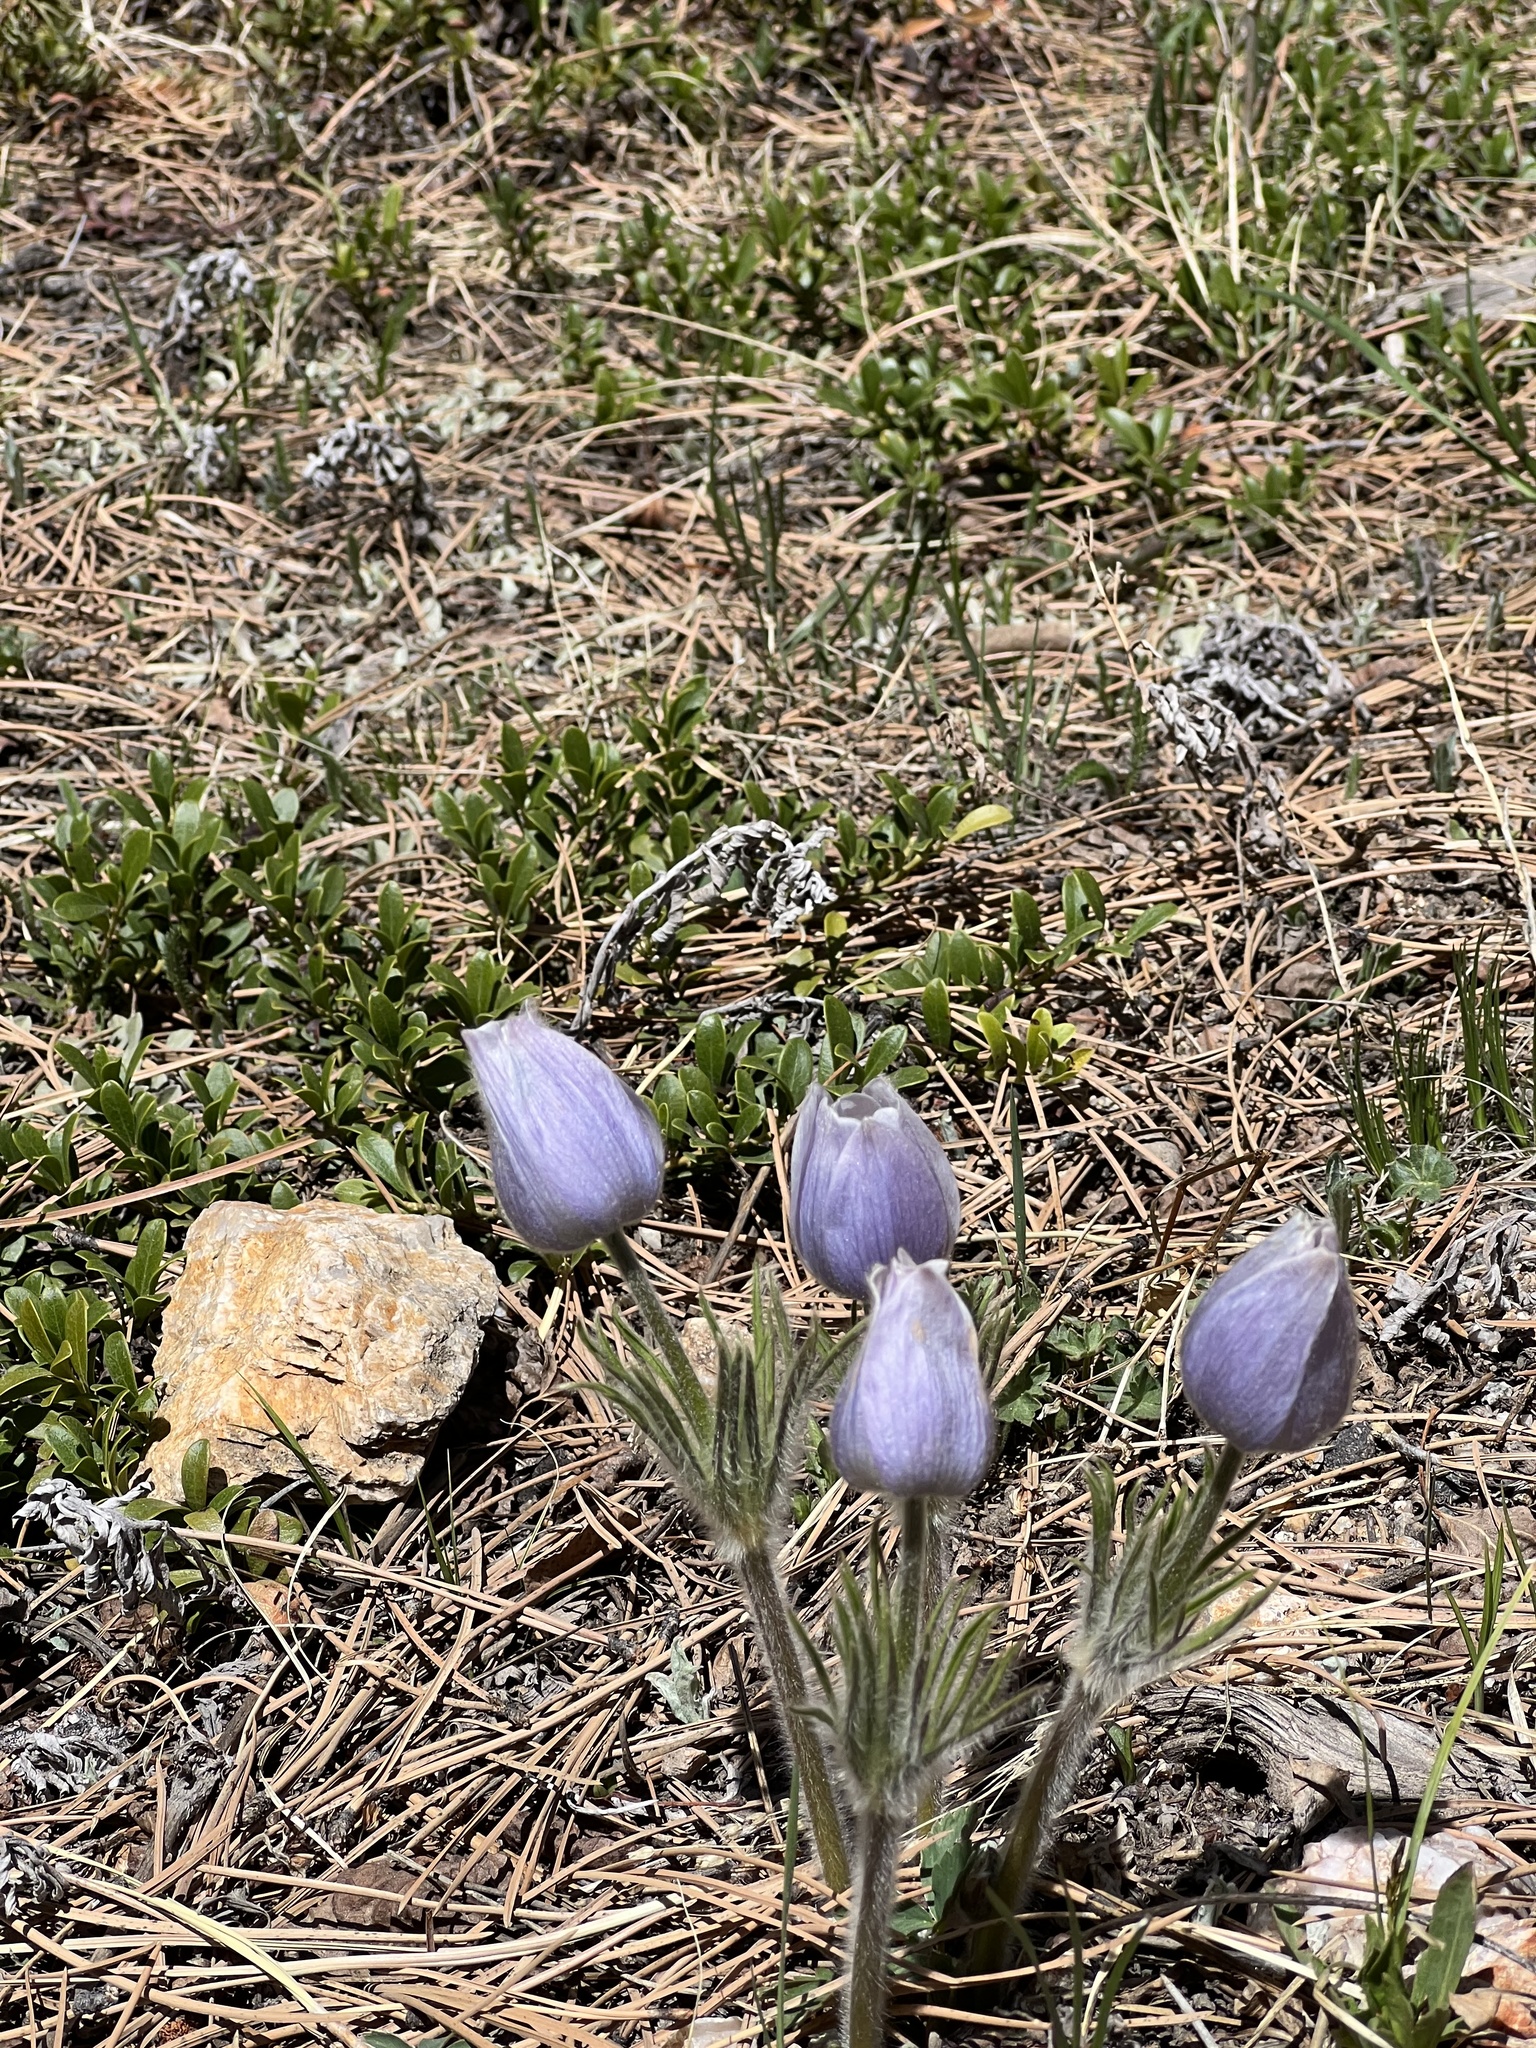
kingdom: Plantae
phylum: Tracheophyta
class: Magnoliopsida
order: Ranunculales
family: Ranunculaceae
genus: Pulsatilla
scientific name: Pulsatilla nuttalliana
